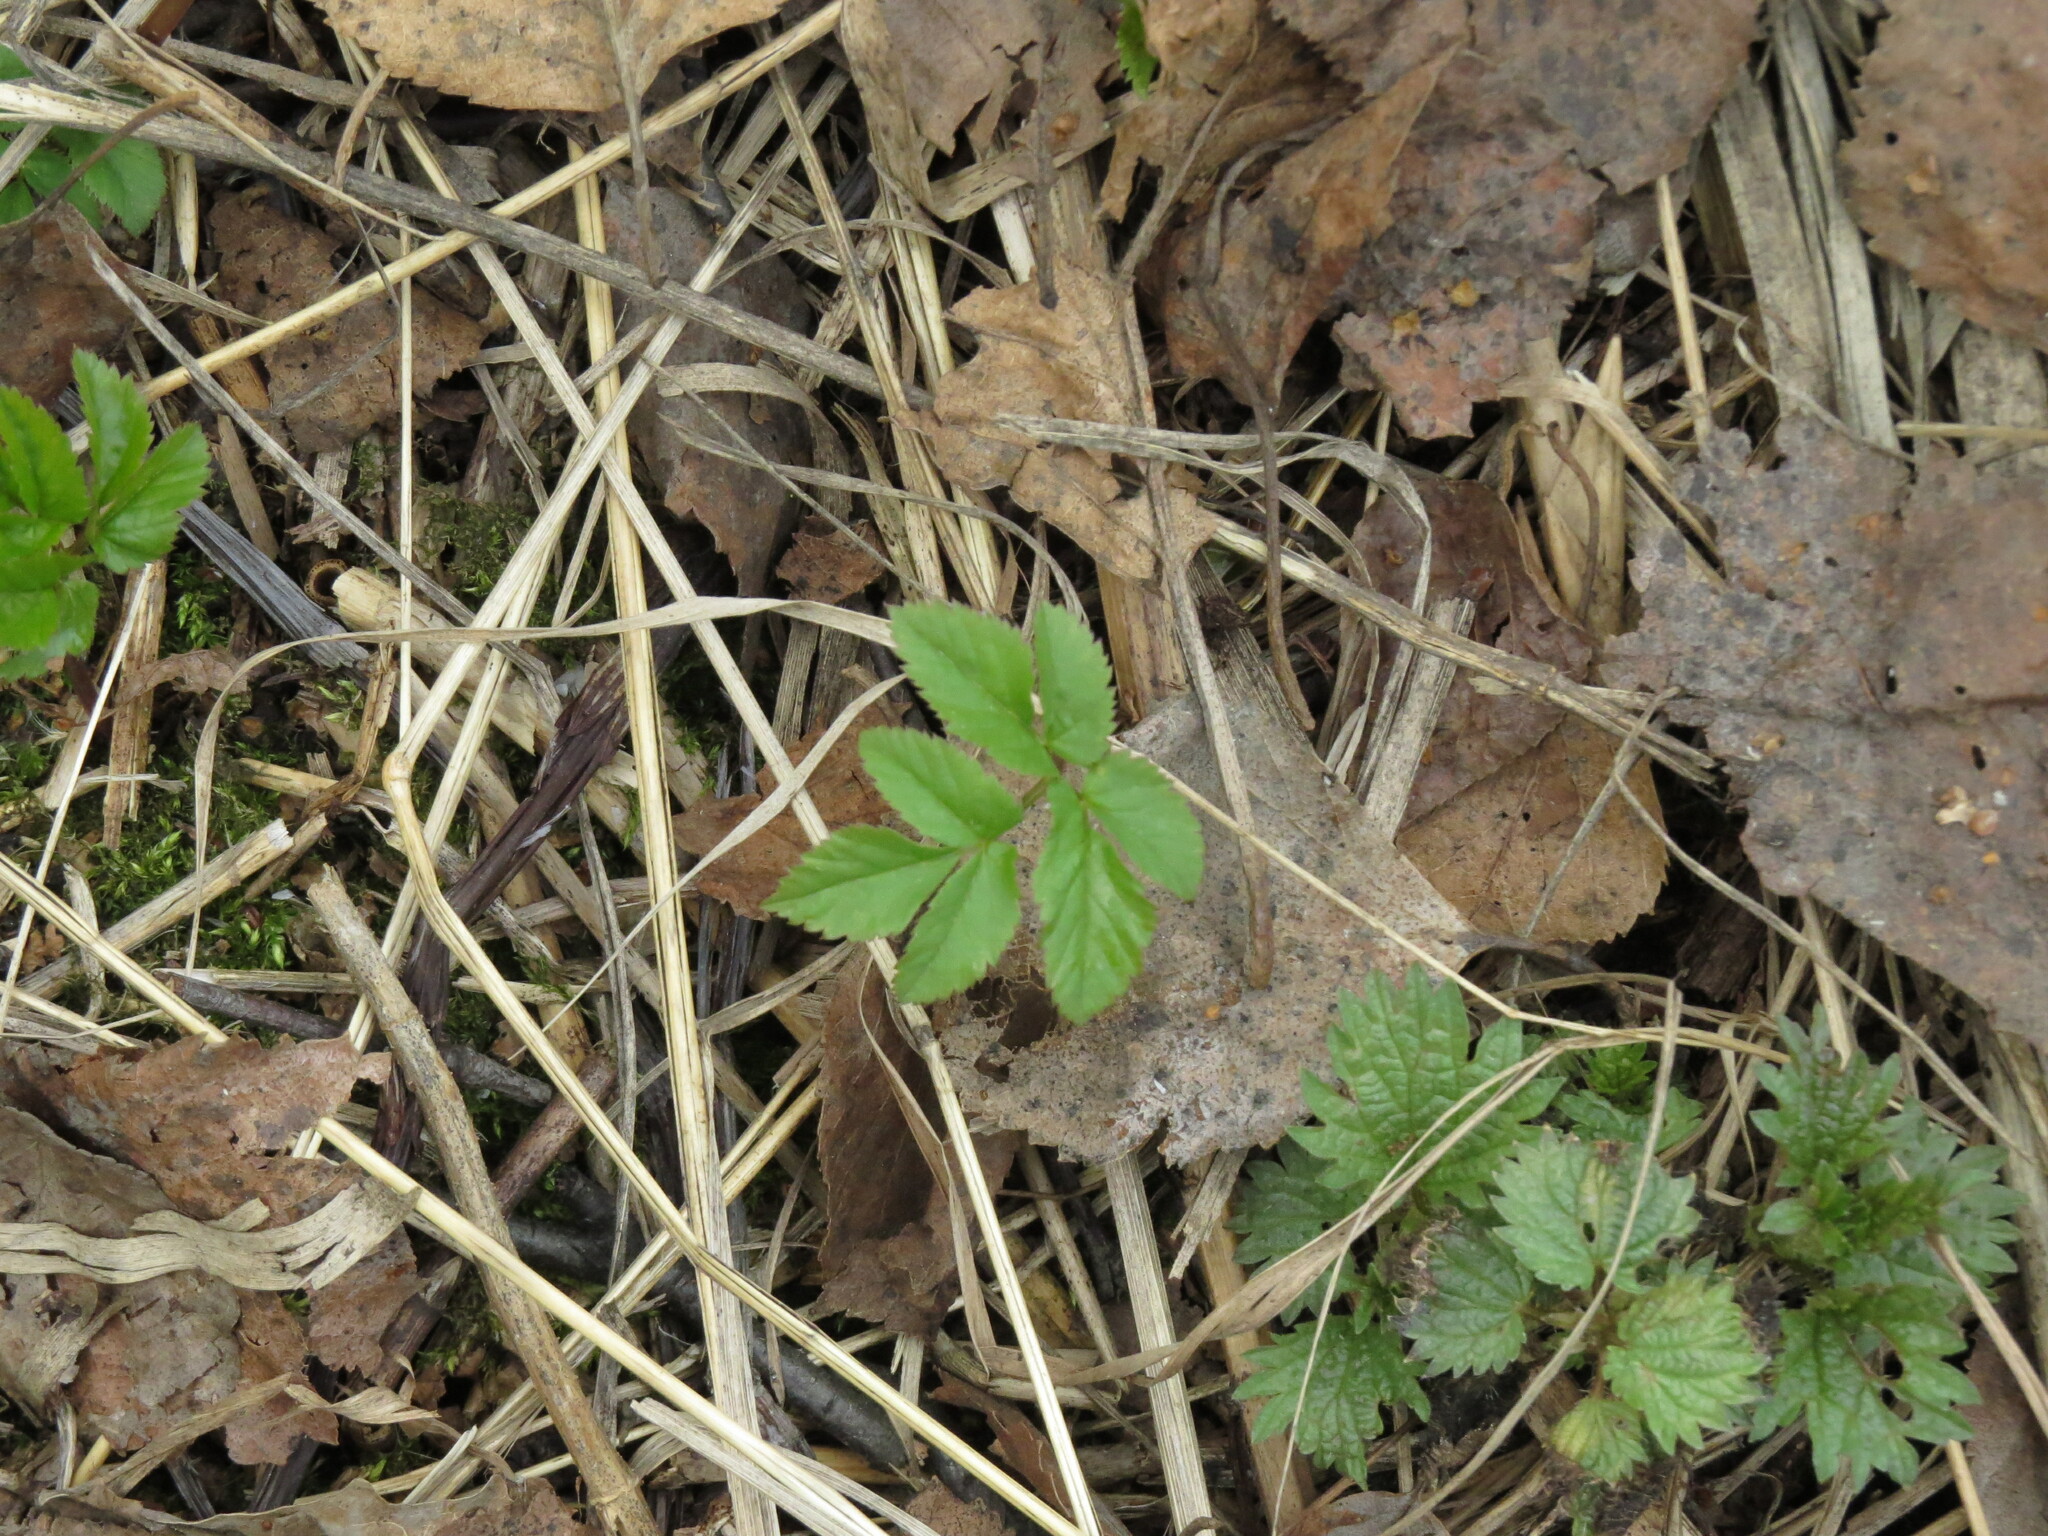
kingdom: Plantae
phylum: Tracheophyta
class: Magnoliopsida
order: Apiales
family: Apiaceae
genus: Aegopodium
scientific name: Aegopodium podagraria
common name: Ground-elder
